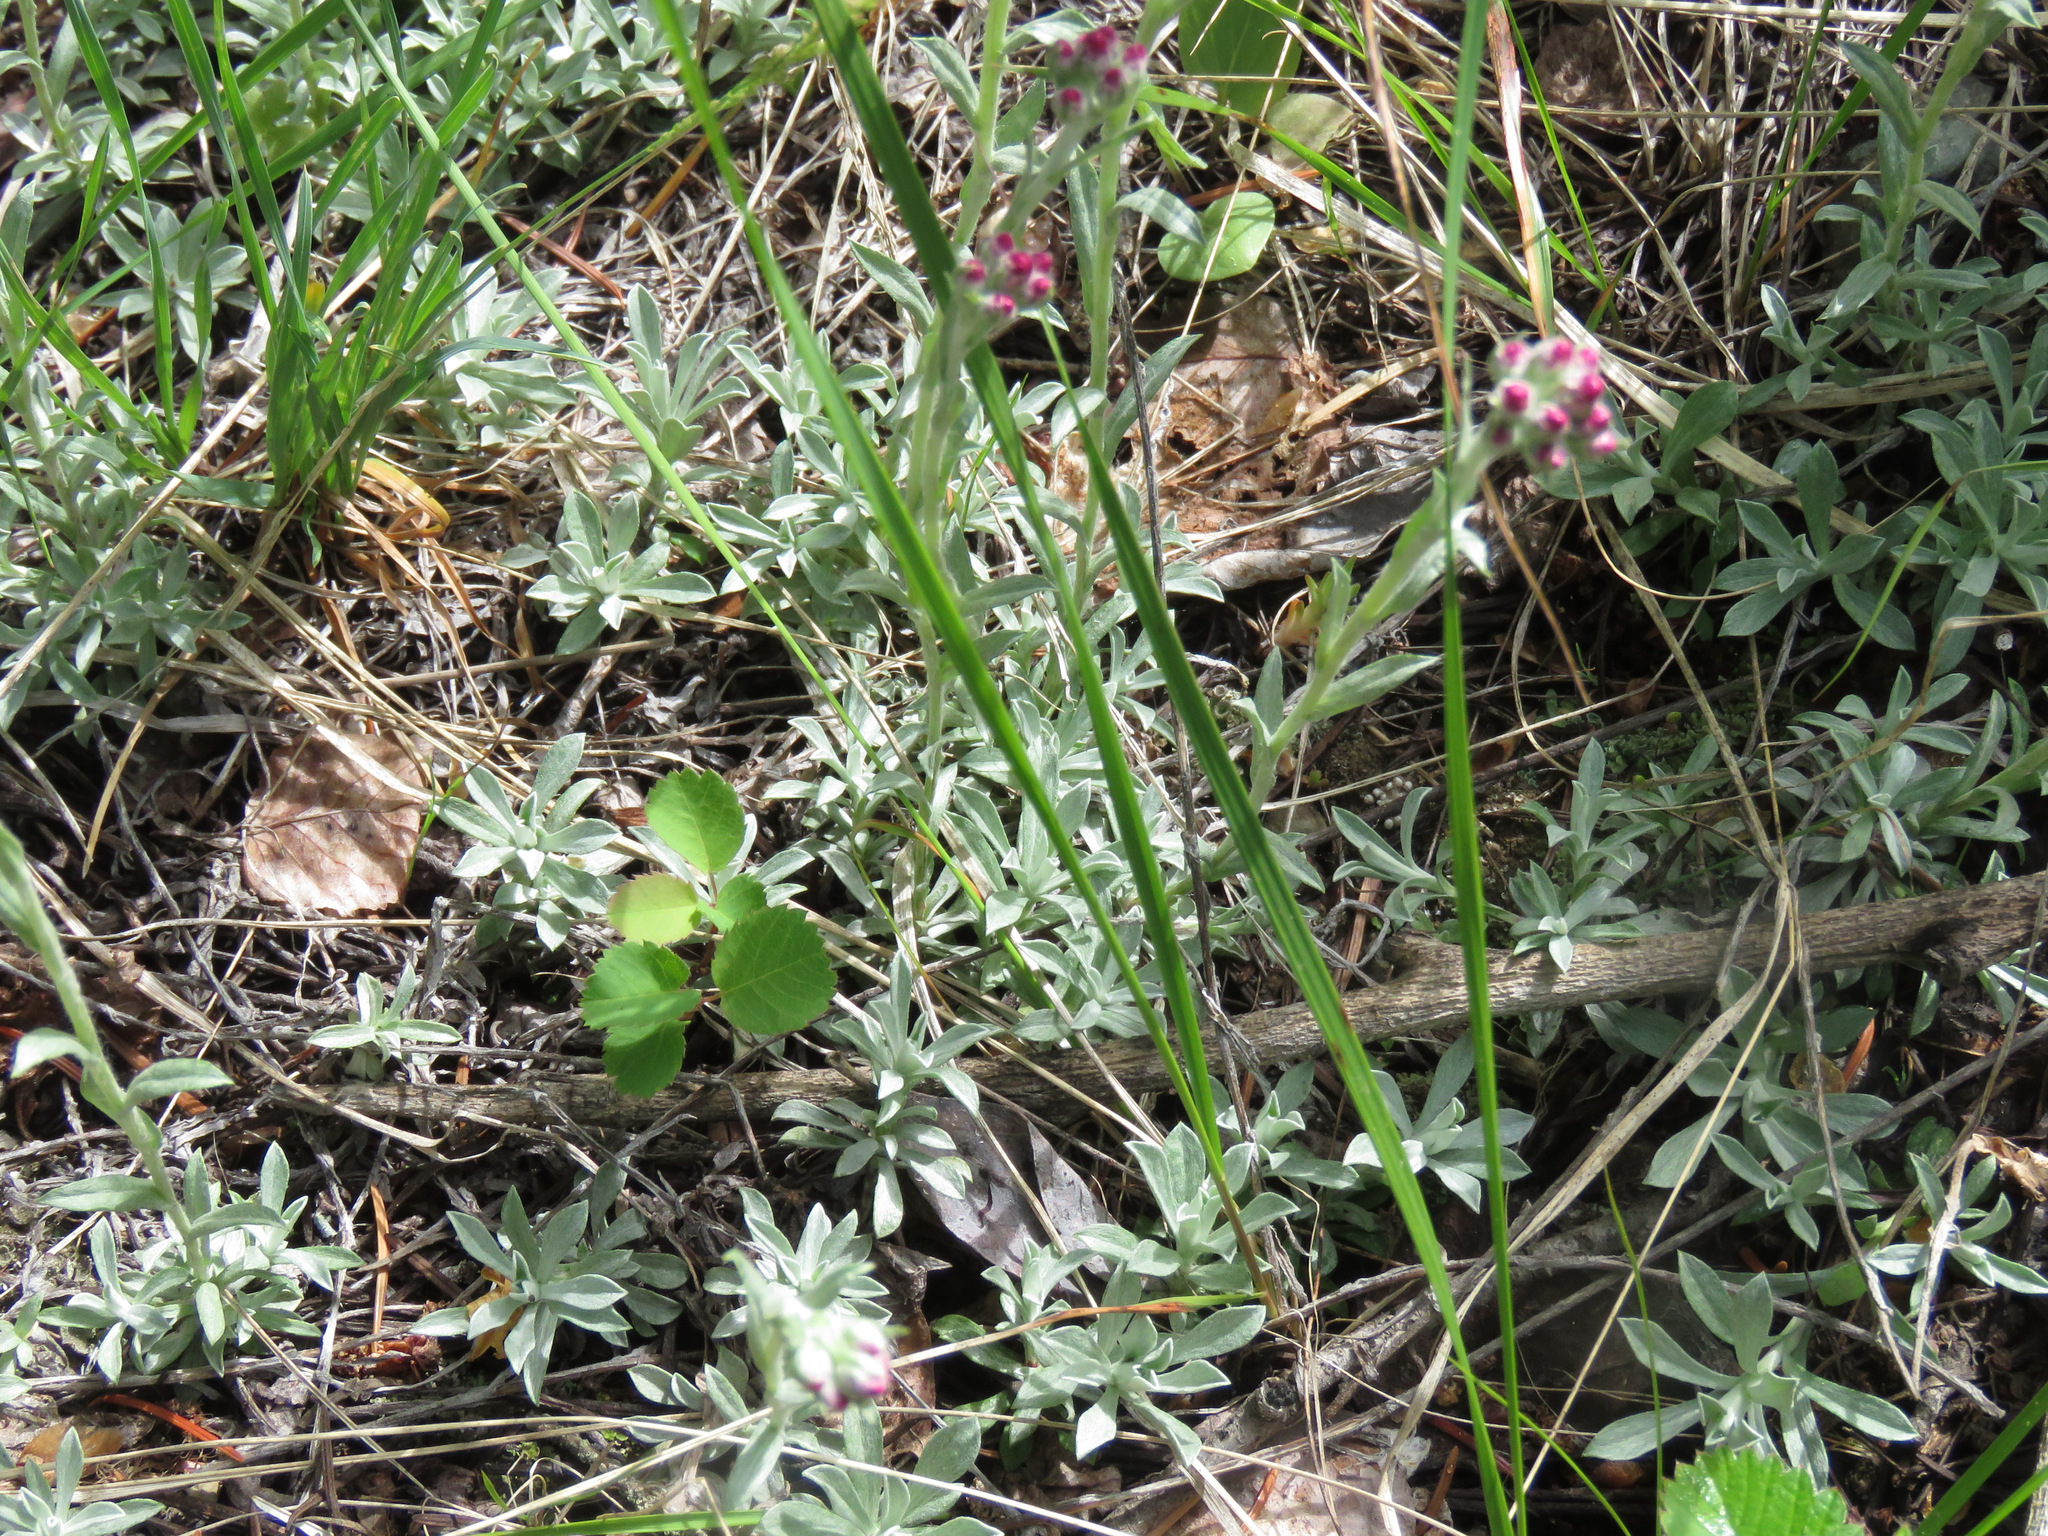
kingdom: Plantae
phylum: Tracheophyta
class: Magnoliopsida
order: Asterales
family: Asteraceae
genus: Antennaria
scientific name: Antennaria rosea
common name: Rosy pussytoes
